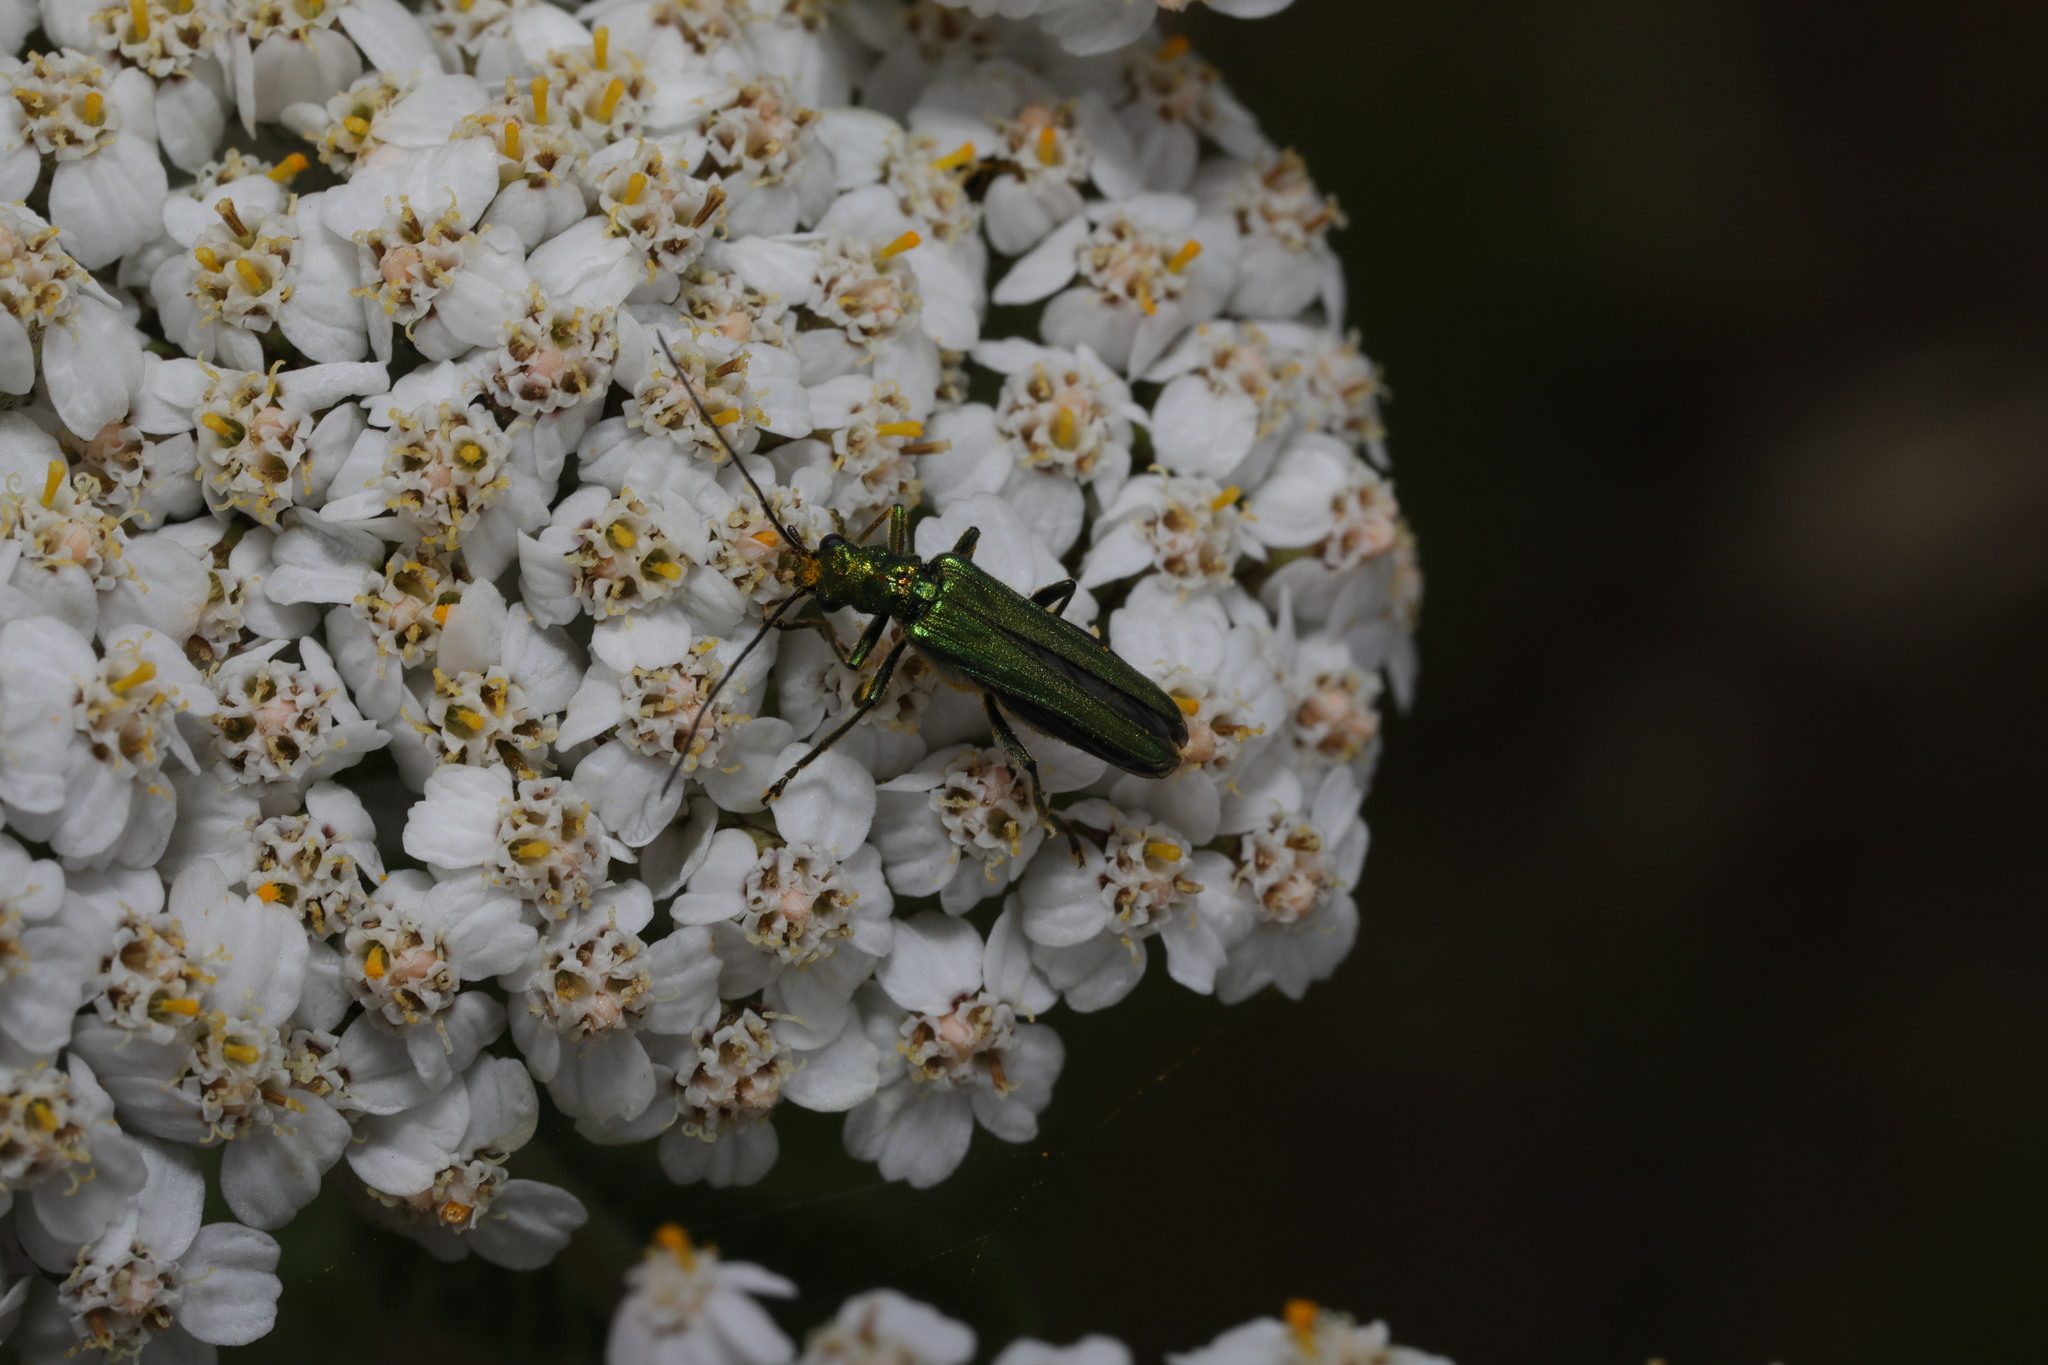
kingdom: Animalia
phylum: Arthropoda
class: Insecta
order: Coleoptera
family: Oedemeridae
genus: Oedemera
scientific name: Oedemera nobilis
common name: Swollen-thighed beetle
